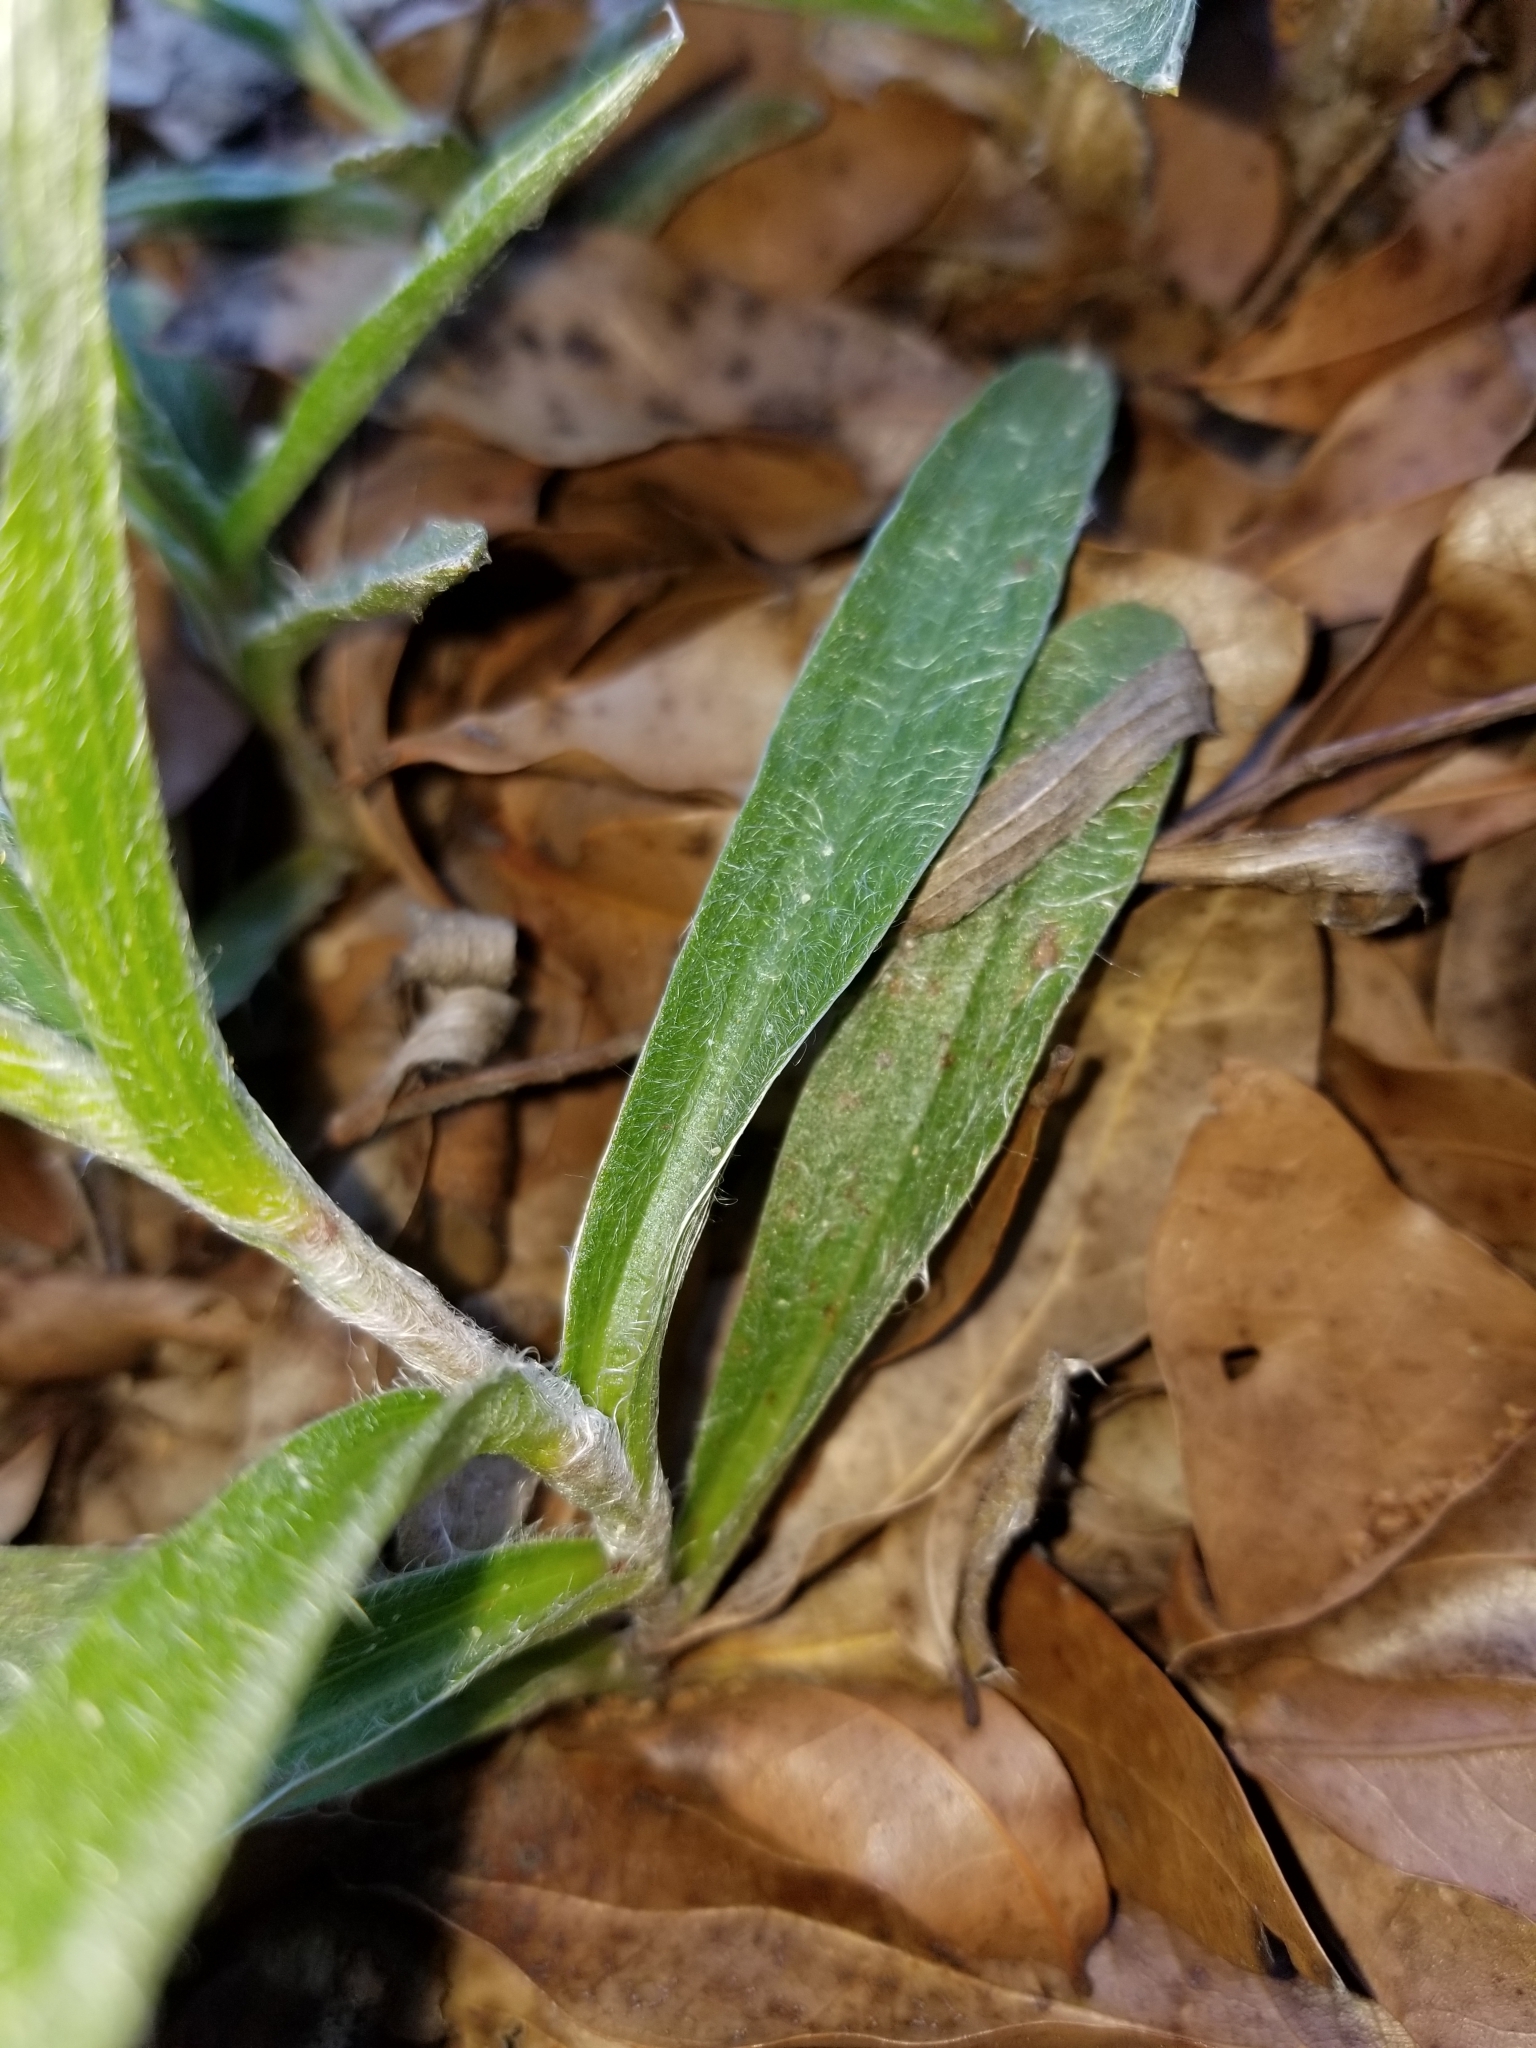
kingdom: Plantae
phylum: Tracheophyta
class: Magnoliopsida
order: Asterales
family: Asteraceae
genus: Pityopsis
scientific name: Pityopsis flexuosa
